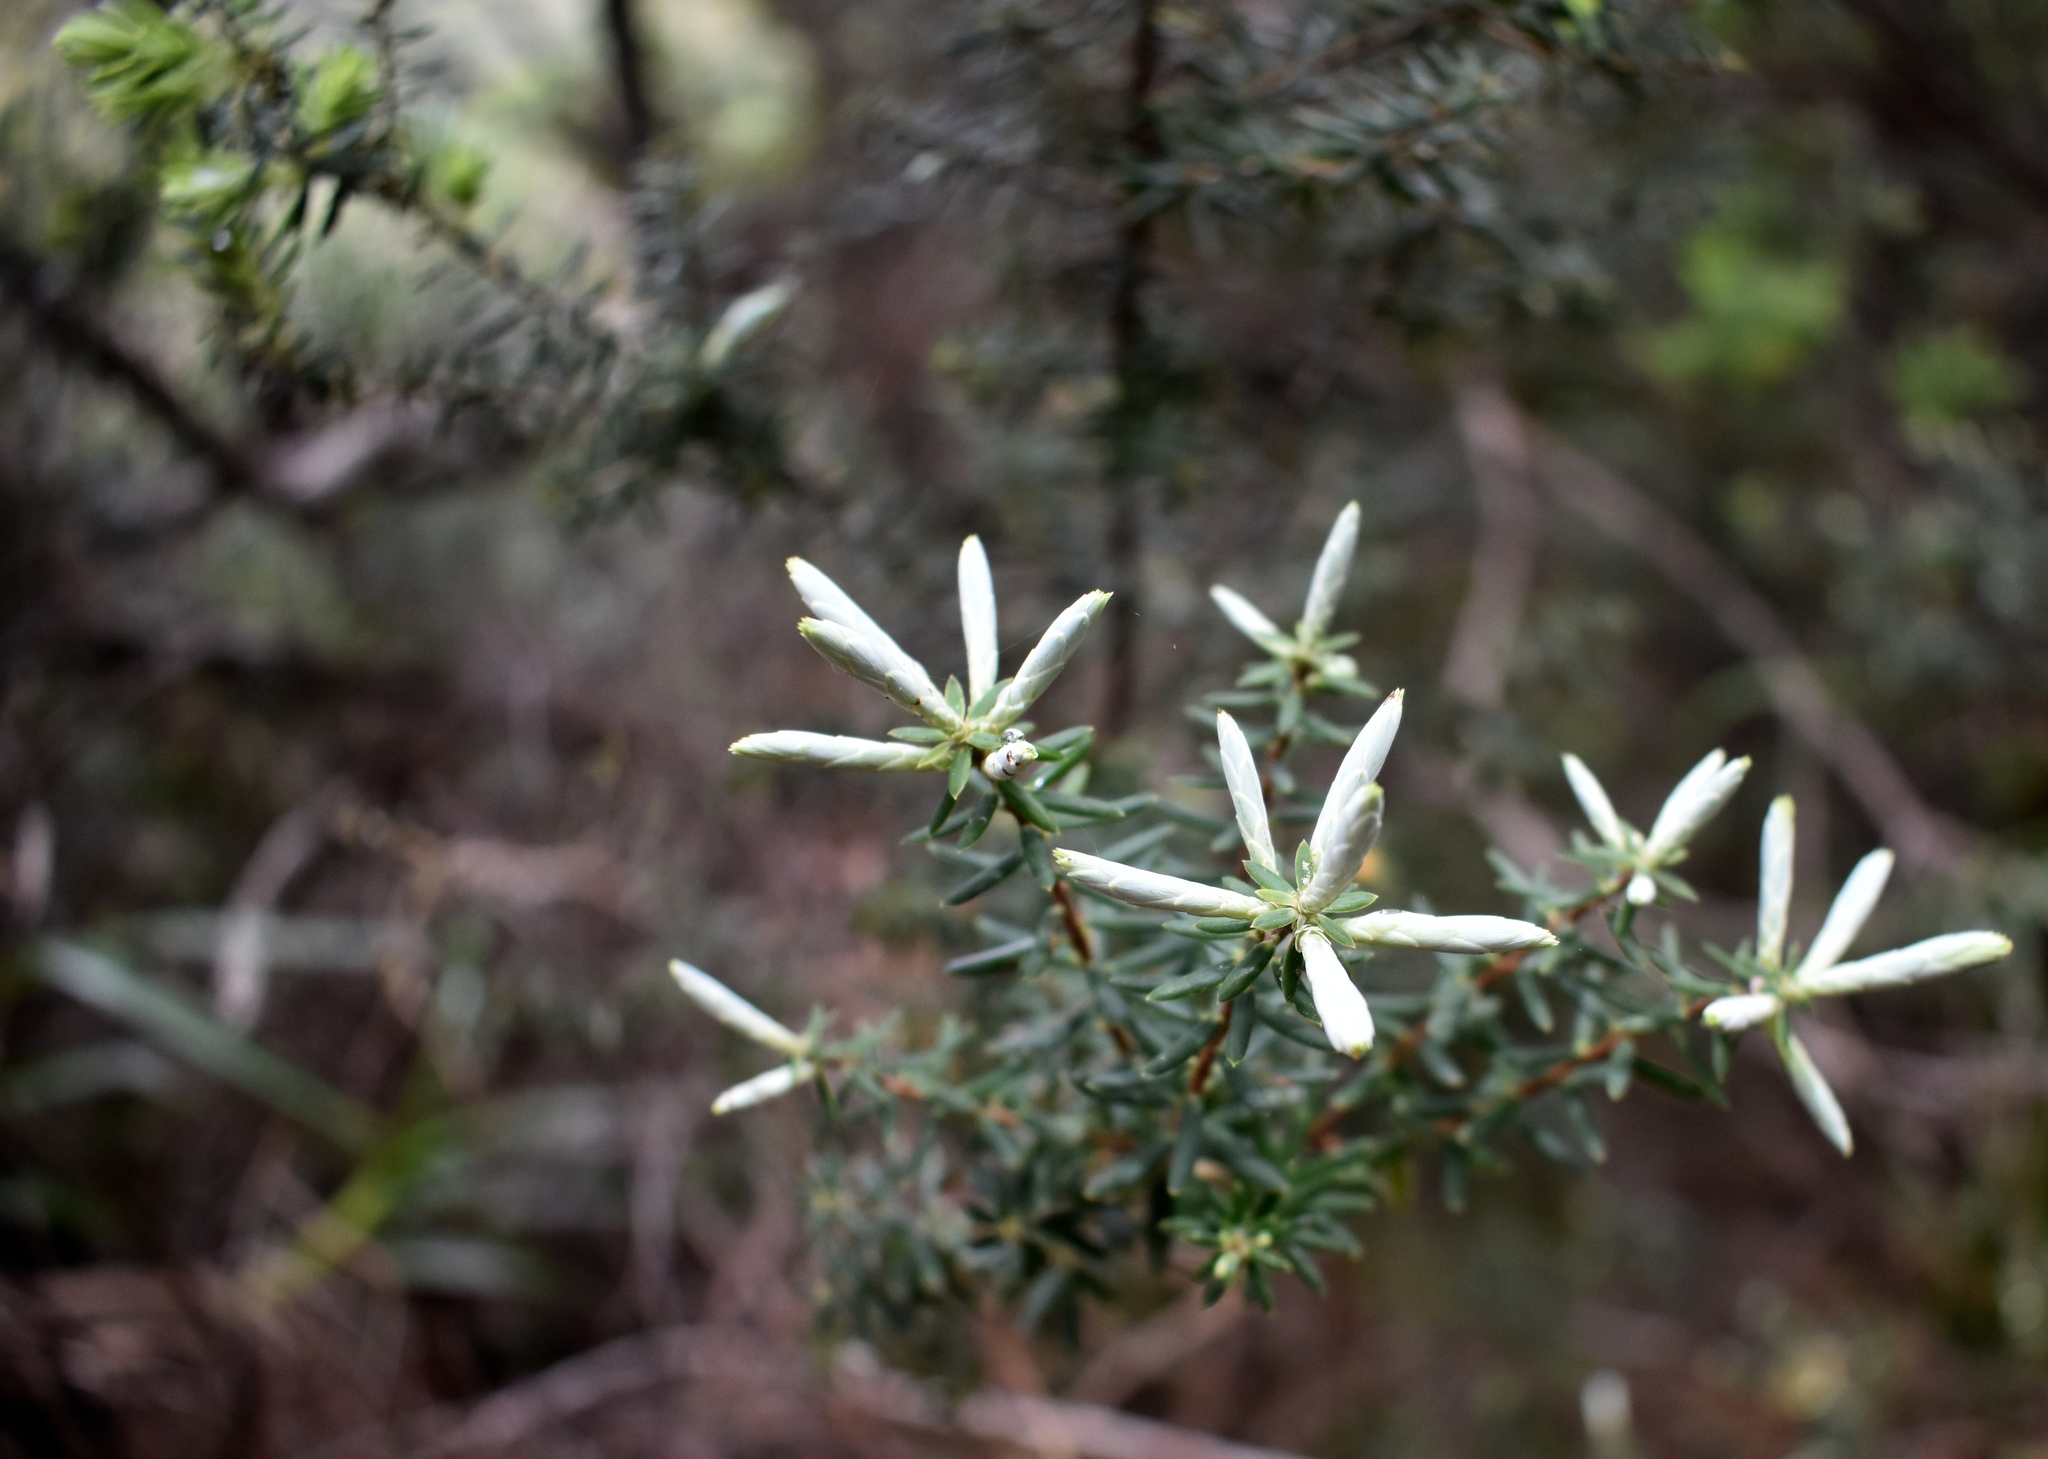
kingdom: Plantae
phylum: Tracheophyta
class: Magnoliopsida
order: Ericales
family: Ericaceae
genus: Leptecophylla
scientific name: Leptecophylla tameiameiae
